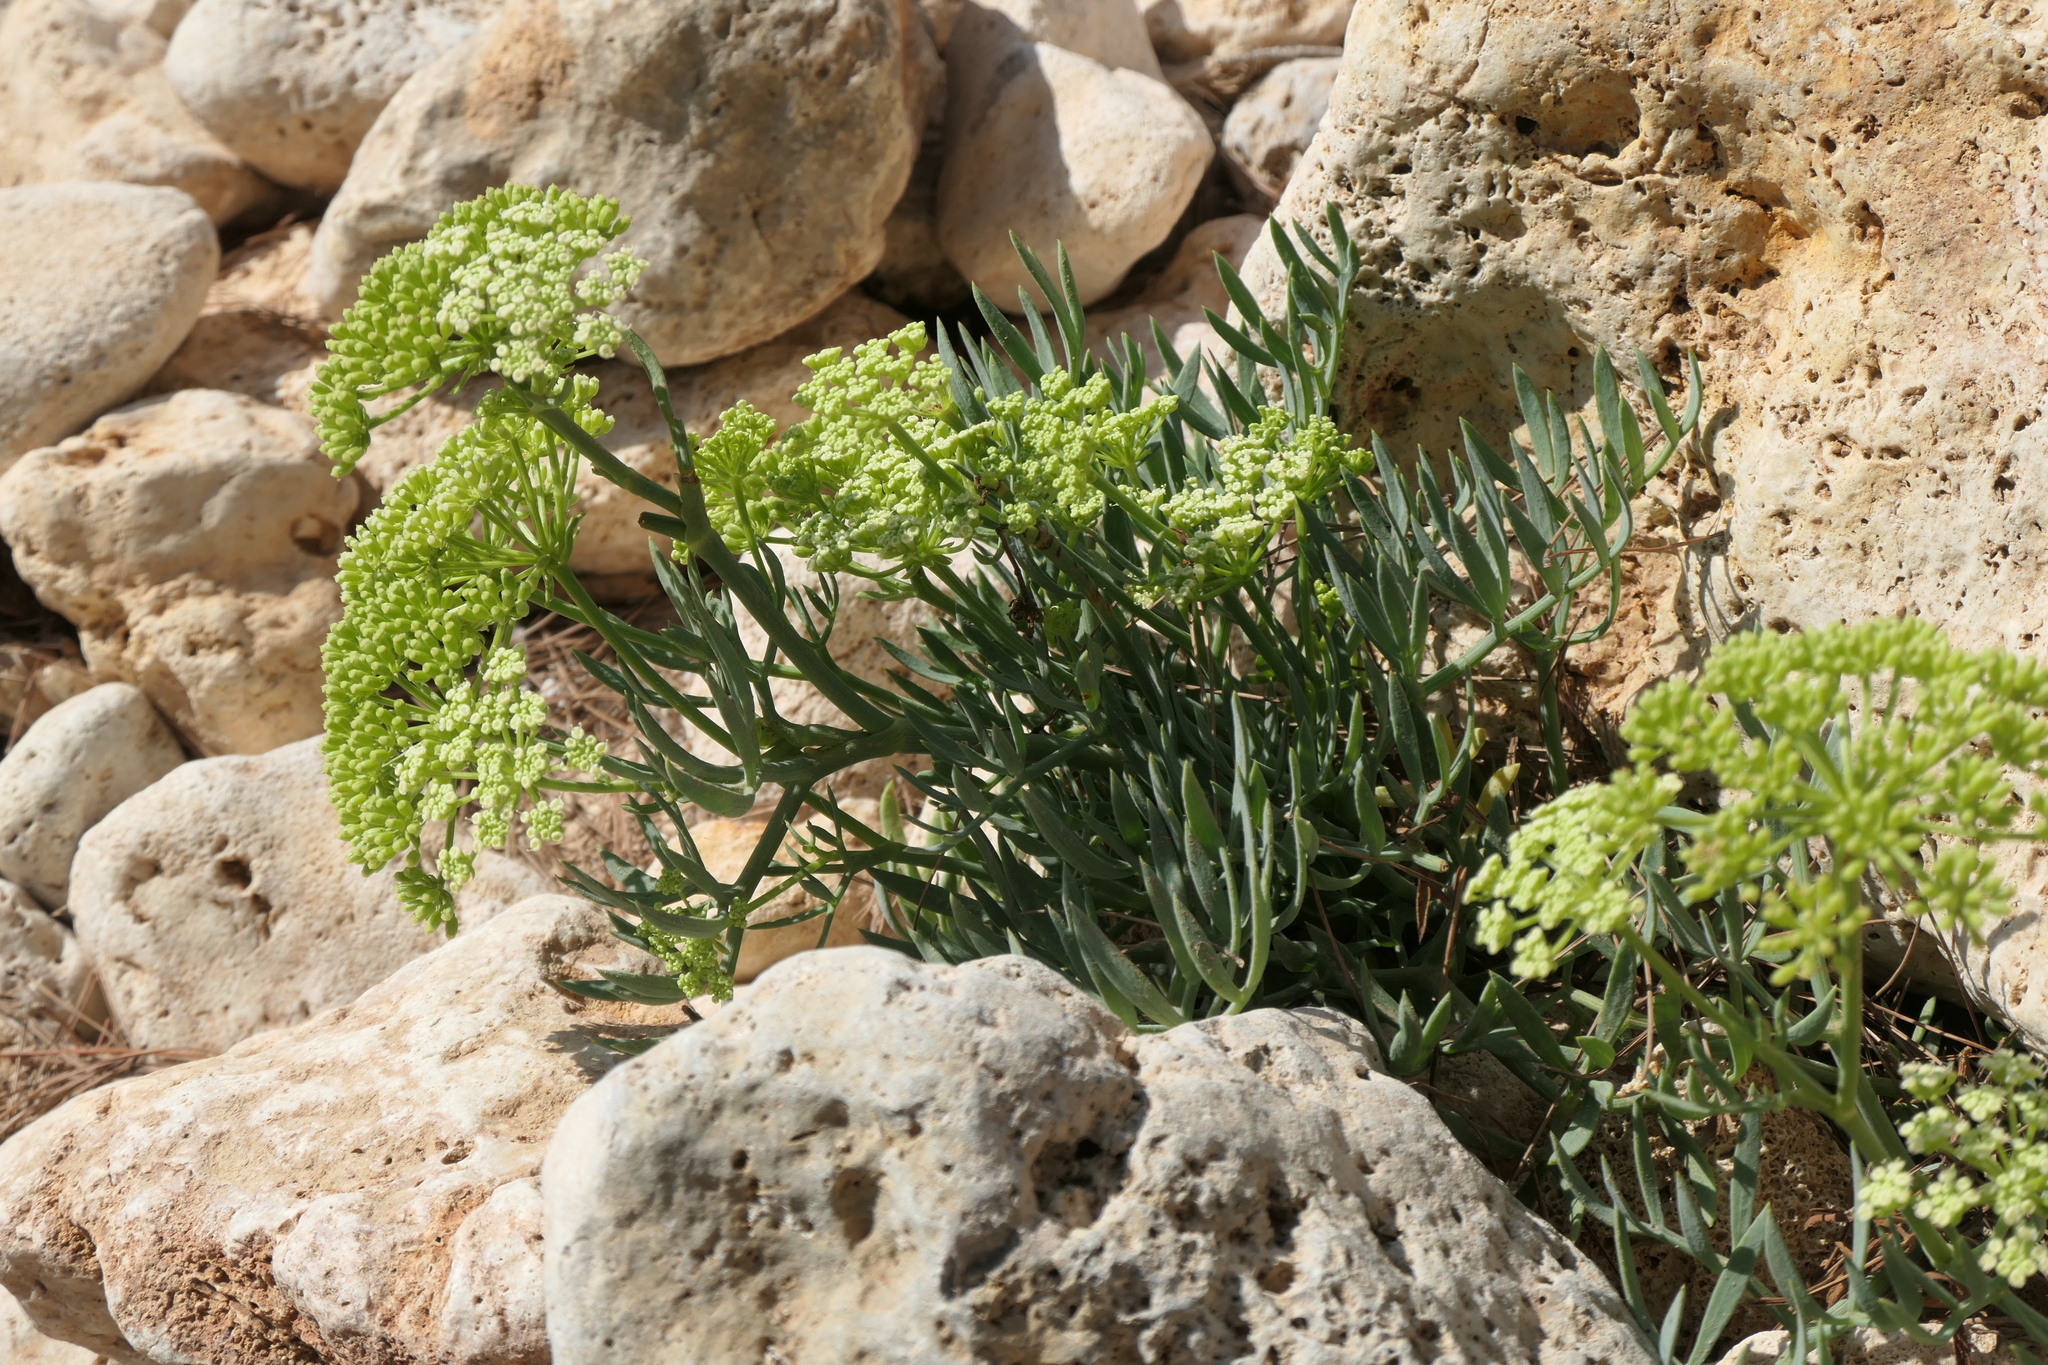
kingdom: Plantae
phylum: Tracheophyta
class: Magnoliopsida
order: Apiales
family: Apiaceae
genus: Crithmum
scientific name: Crithmum maritimum
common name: Rock samphire
